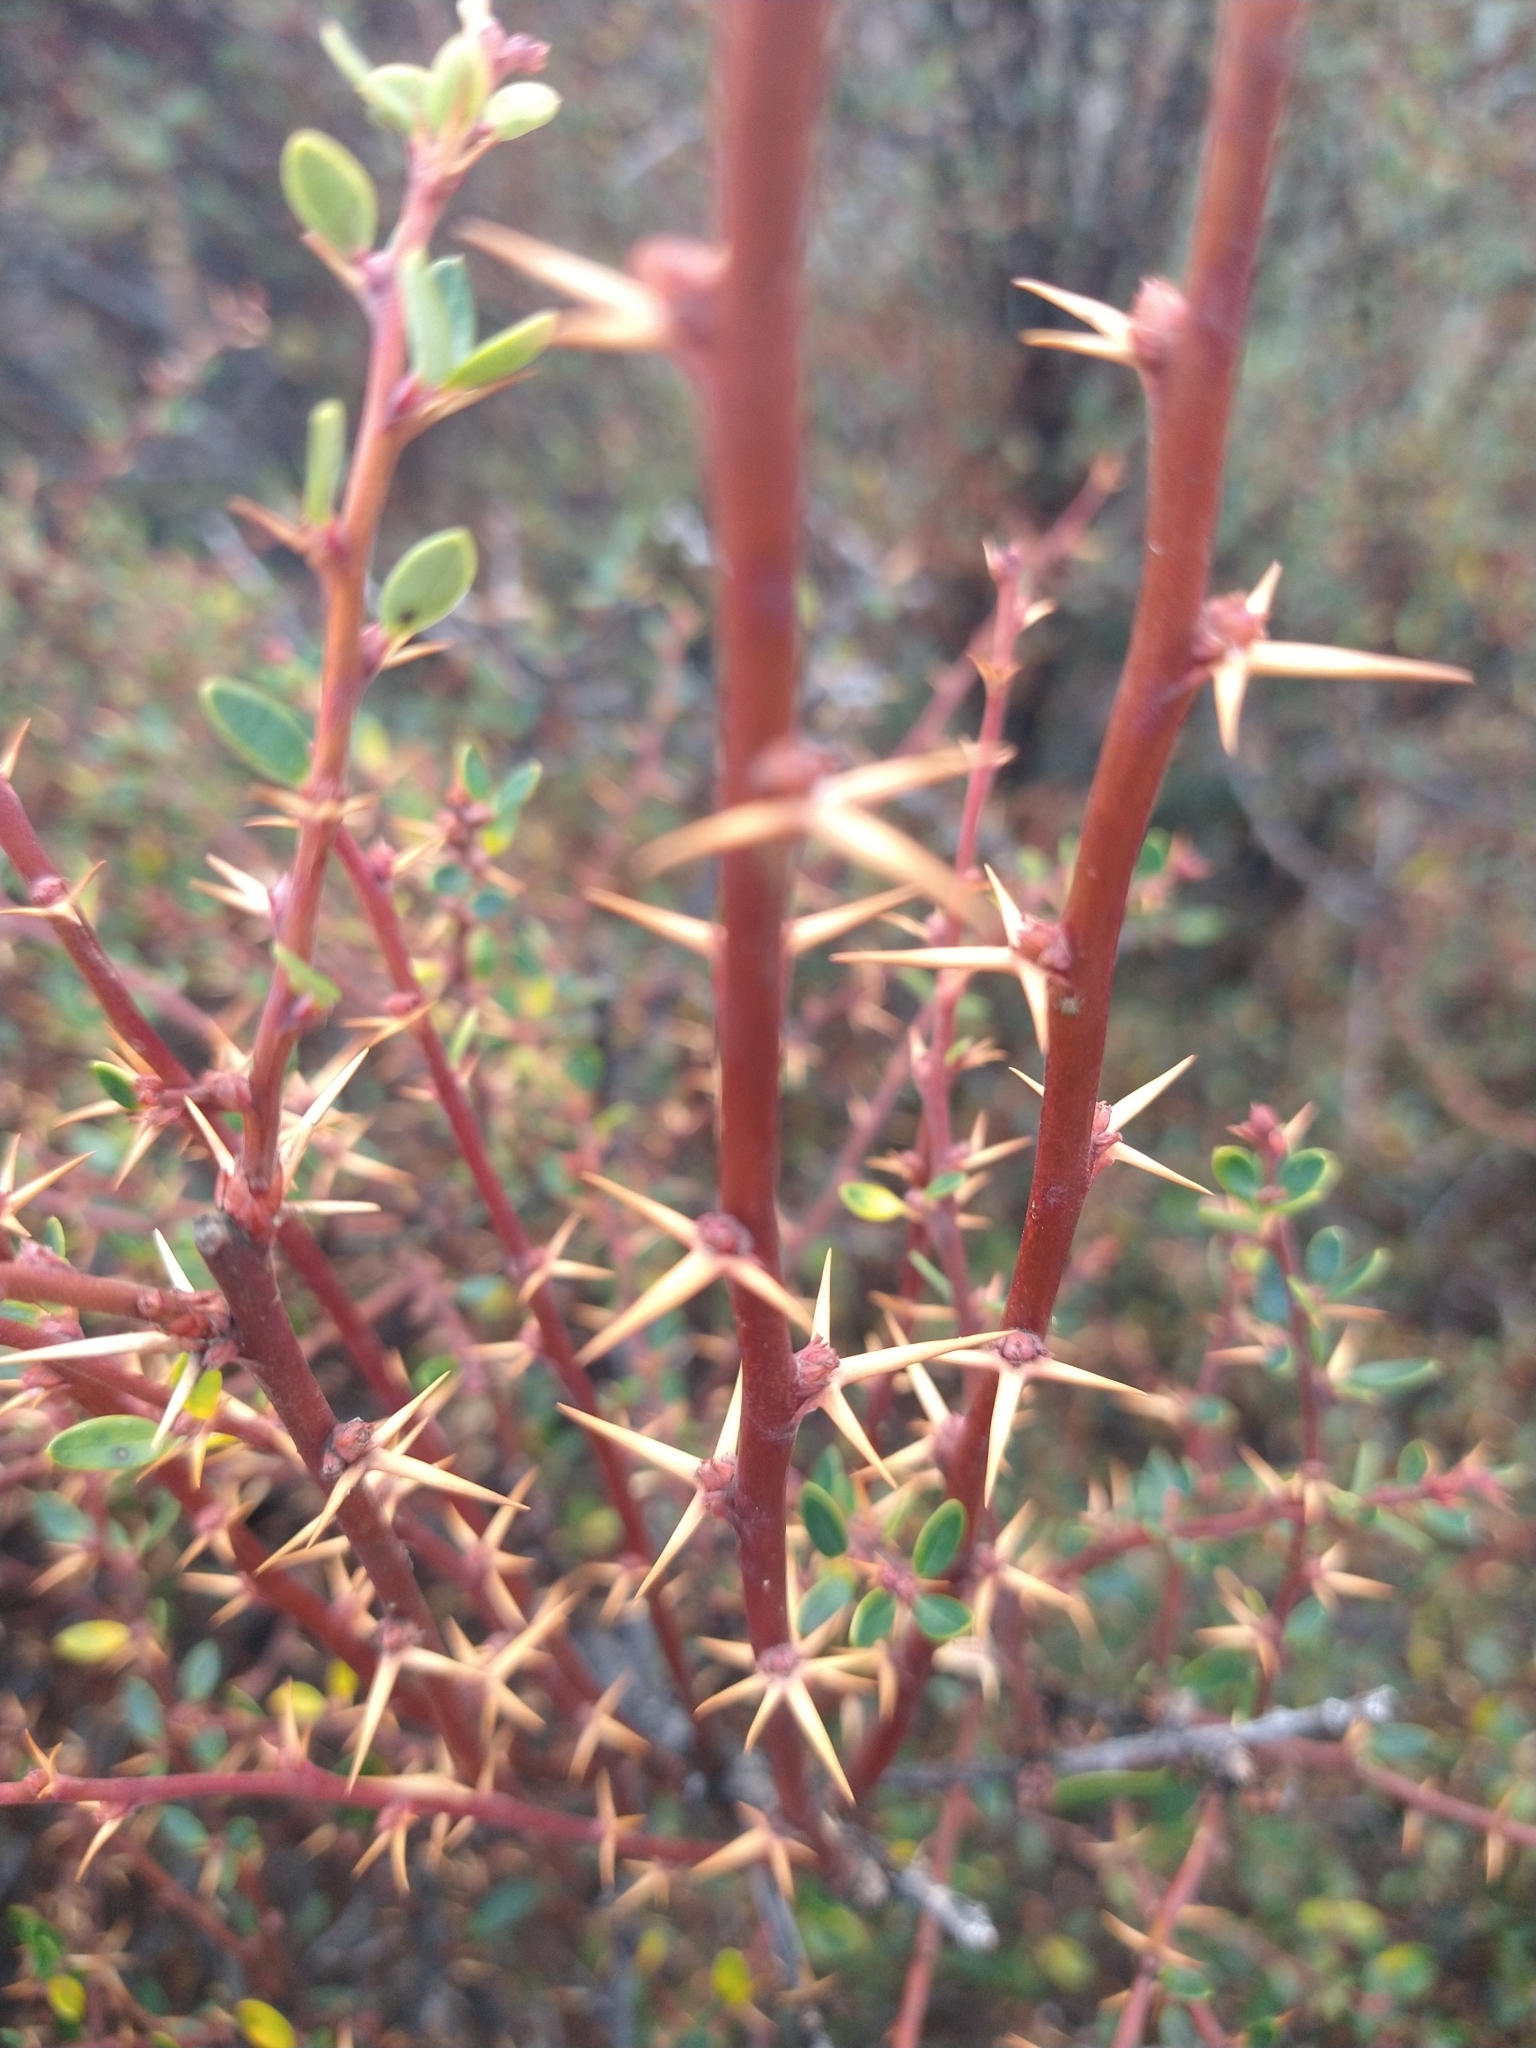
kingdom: Plantae
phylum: Tracheophyta
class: Magnoliopsida
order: Ranunculales
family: Berberidaceae
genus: Berberis
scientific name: Berberis microphylla
